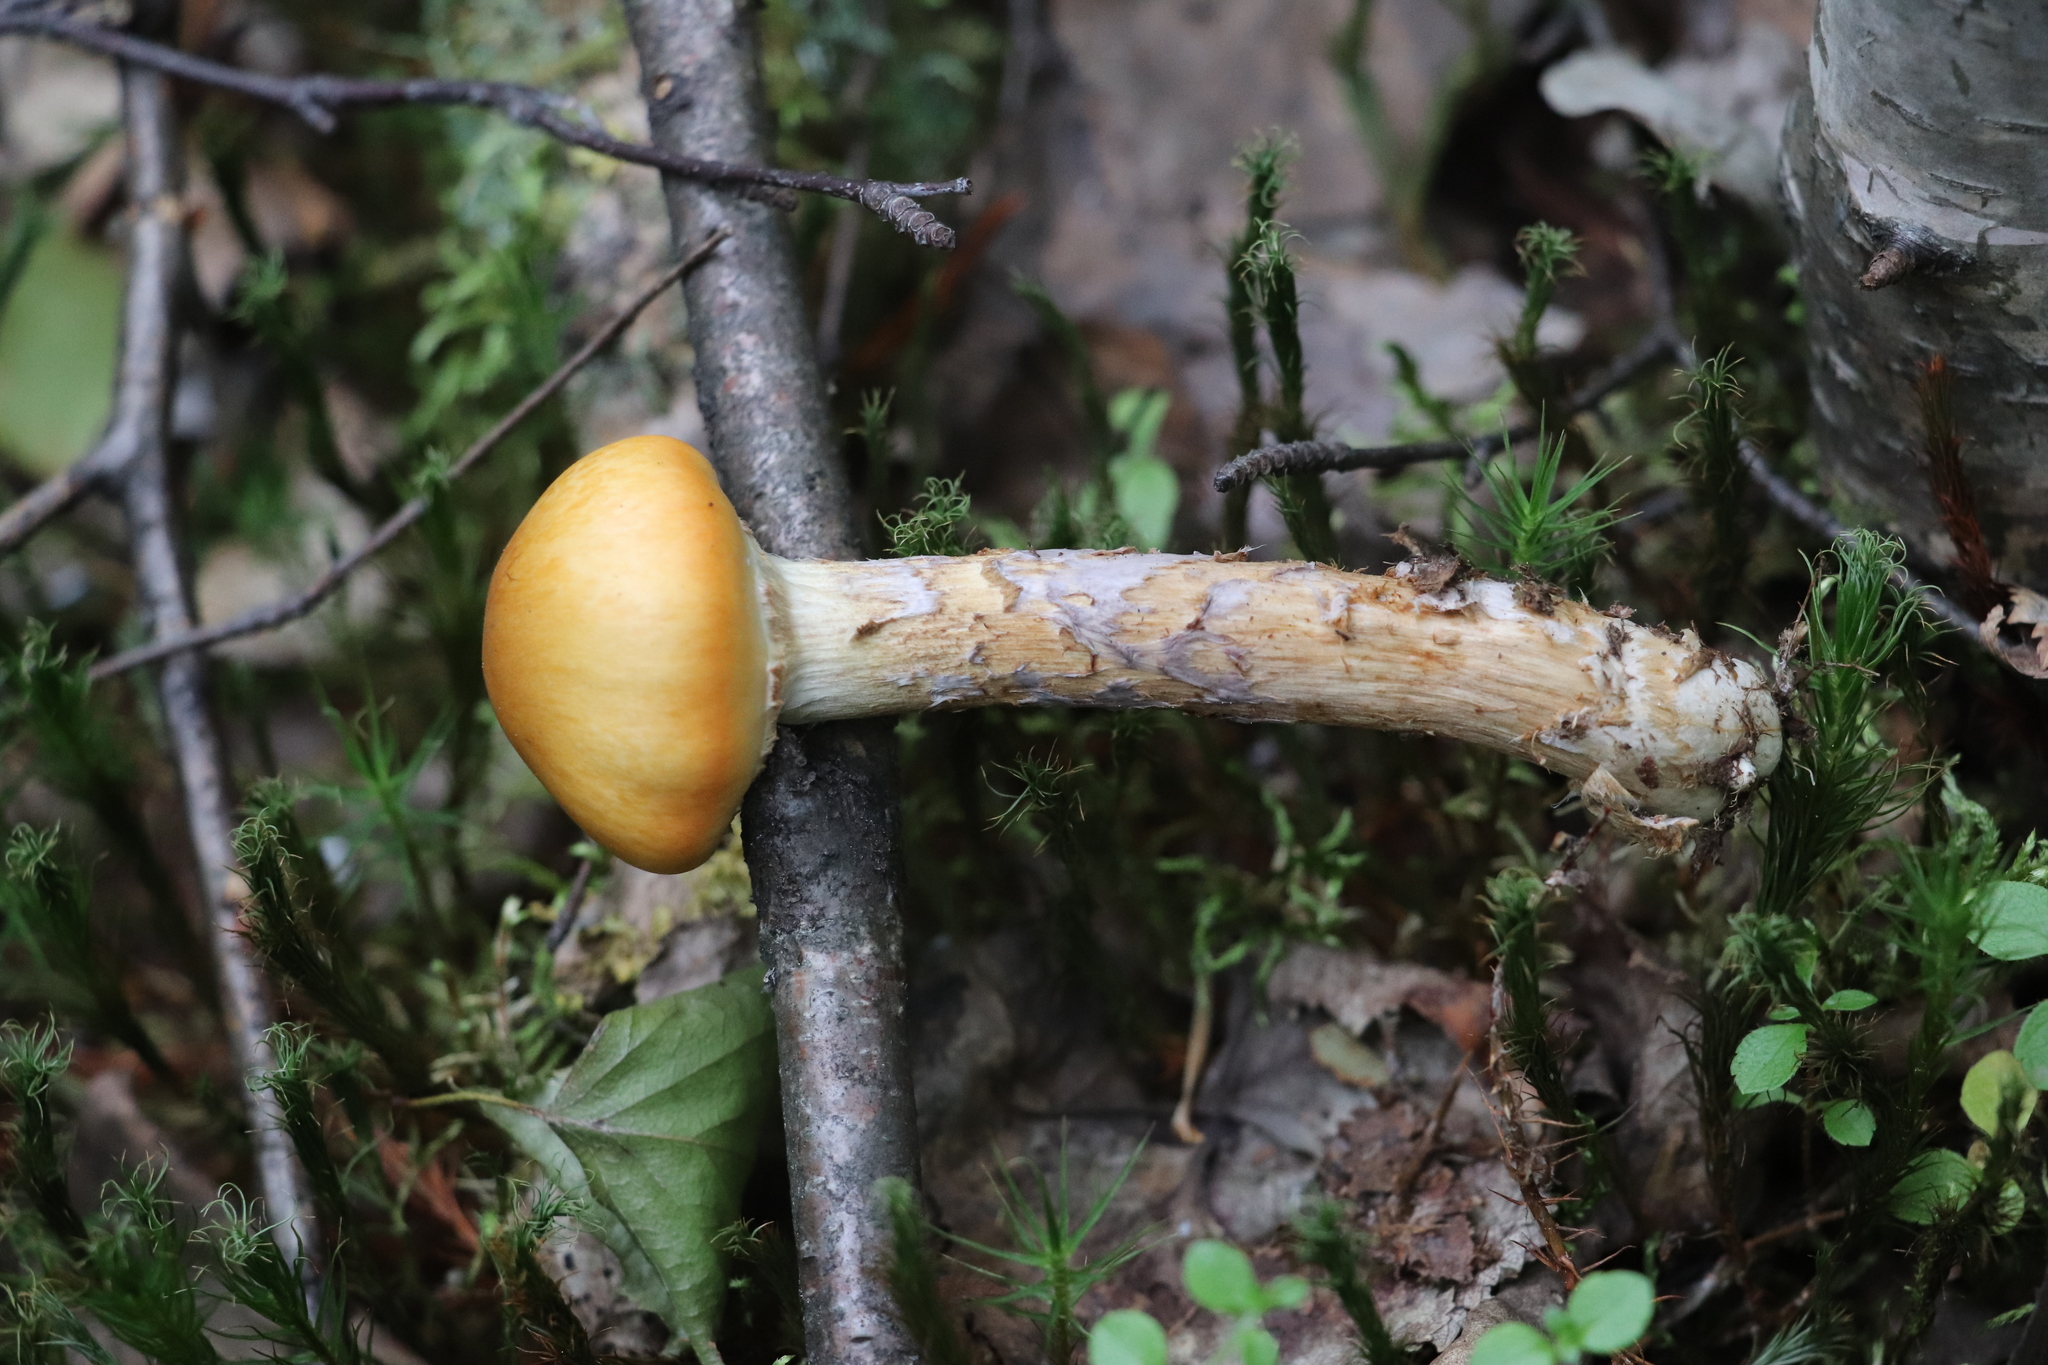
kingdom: Fungi
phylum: Basidiomycota
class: Agaricomycetes
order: Agaricales
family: Cortinariaceae
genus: Cortinarius
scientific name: Cortinarius trivialis
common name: Girdled webcap
